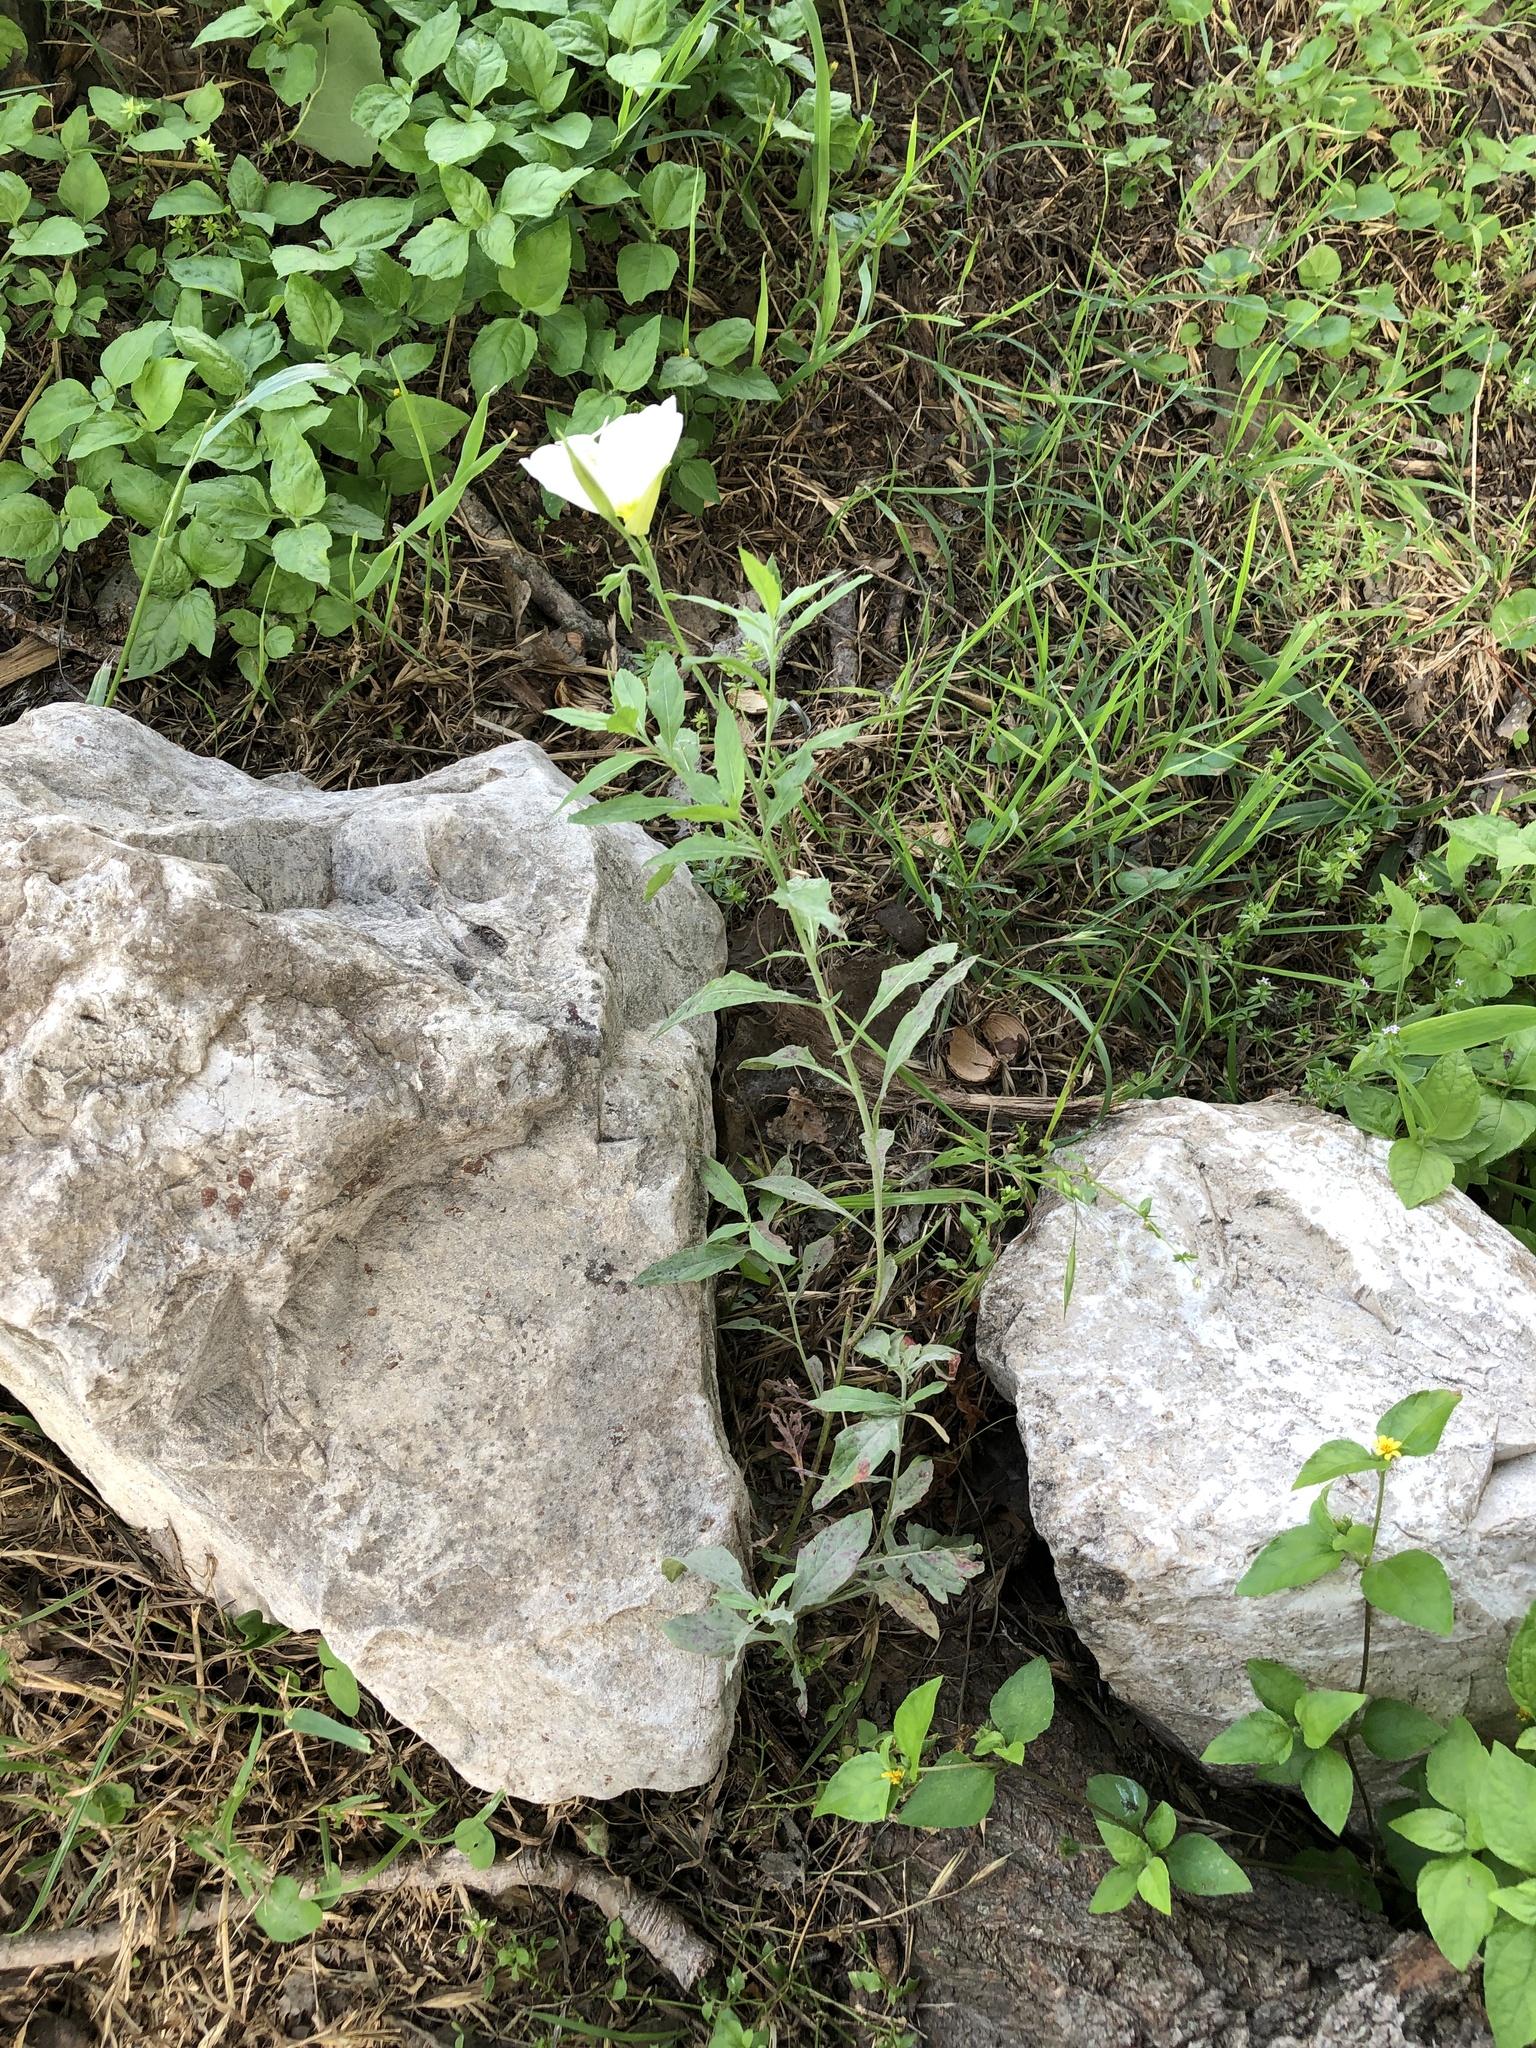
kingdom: Plantae
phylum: Tracheophyta
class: Magnoliopsida
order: Myrtales
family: Onagraceae
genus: Oenothera
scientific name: Oenothera speciosa
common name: White evening-primrose
